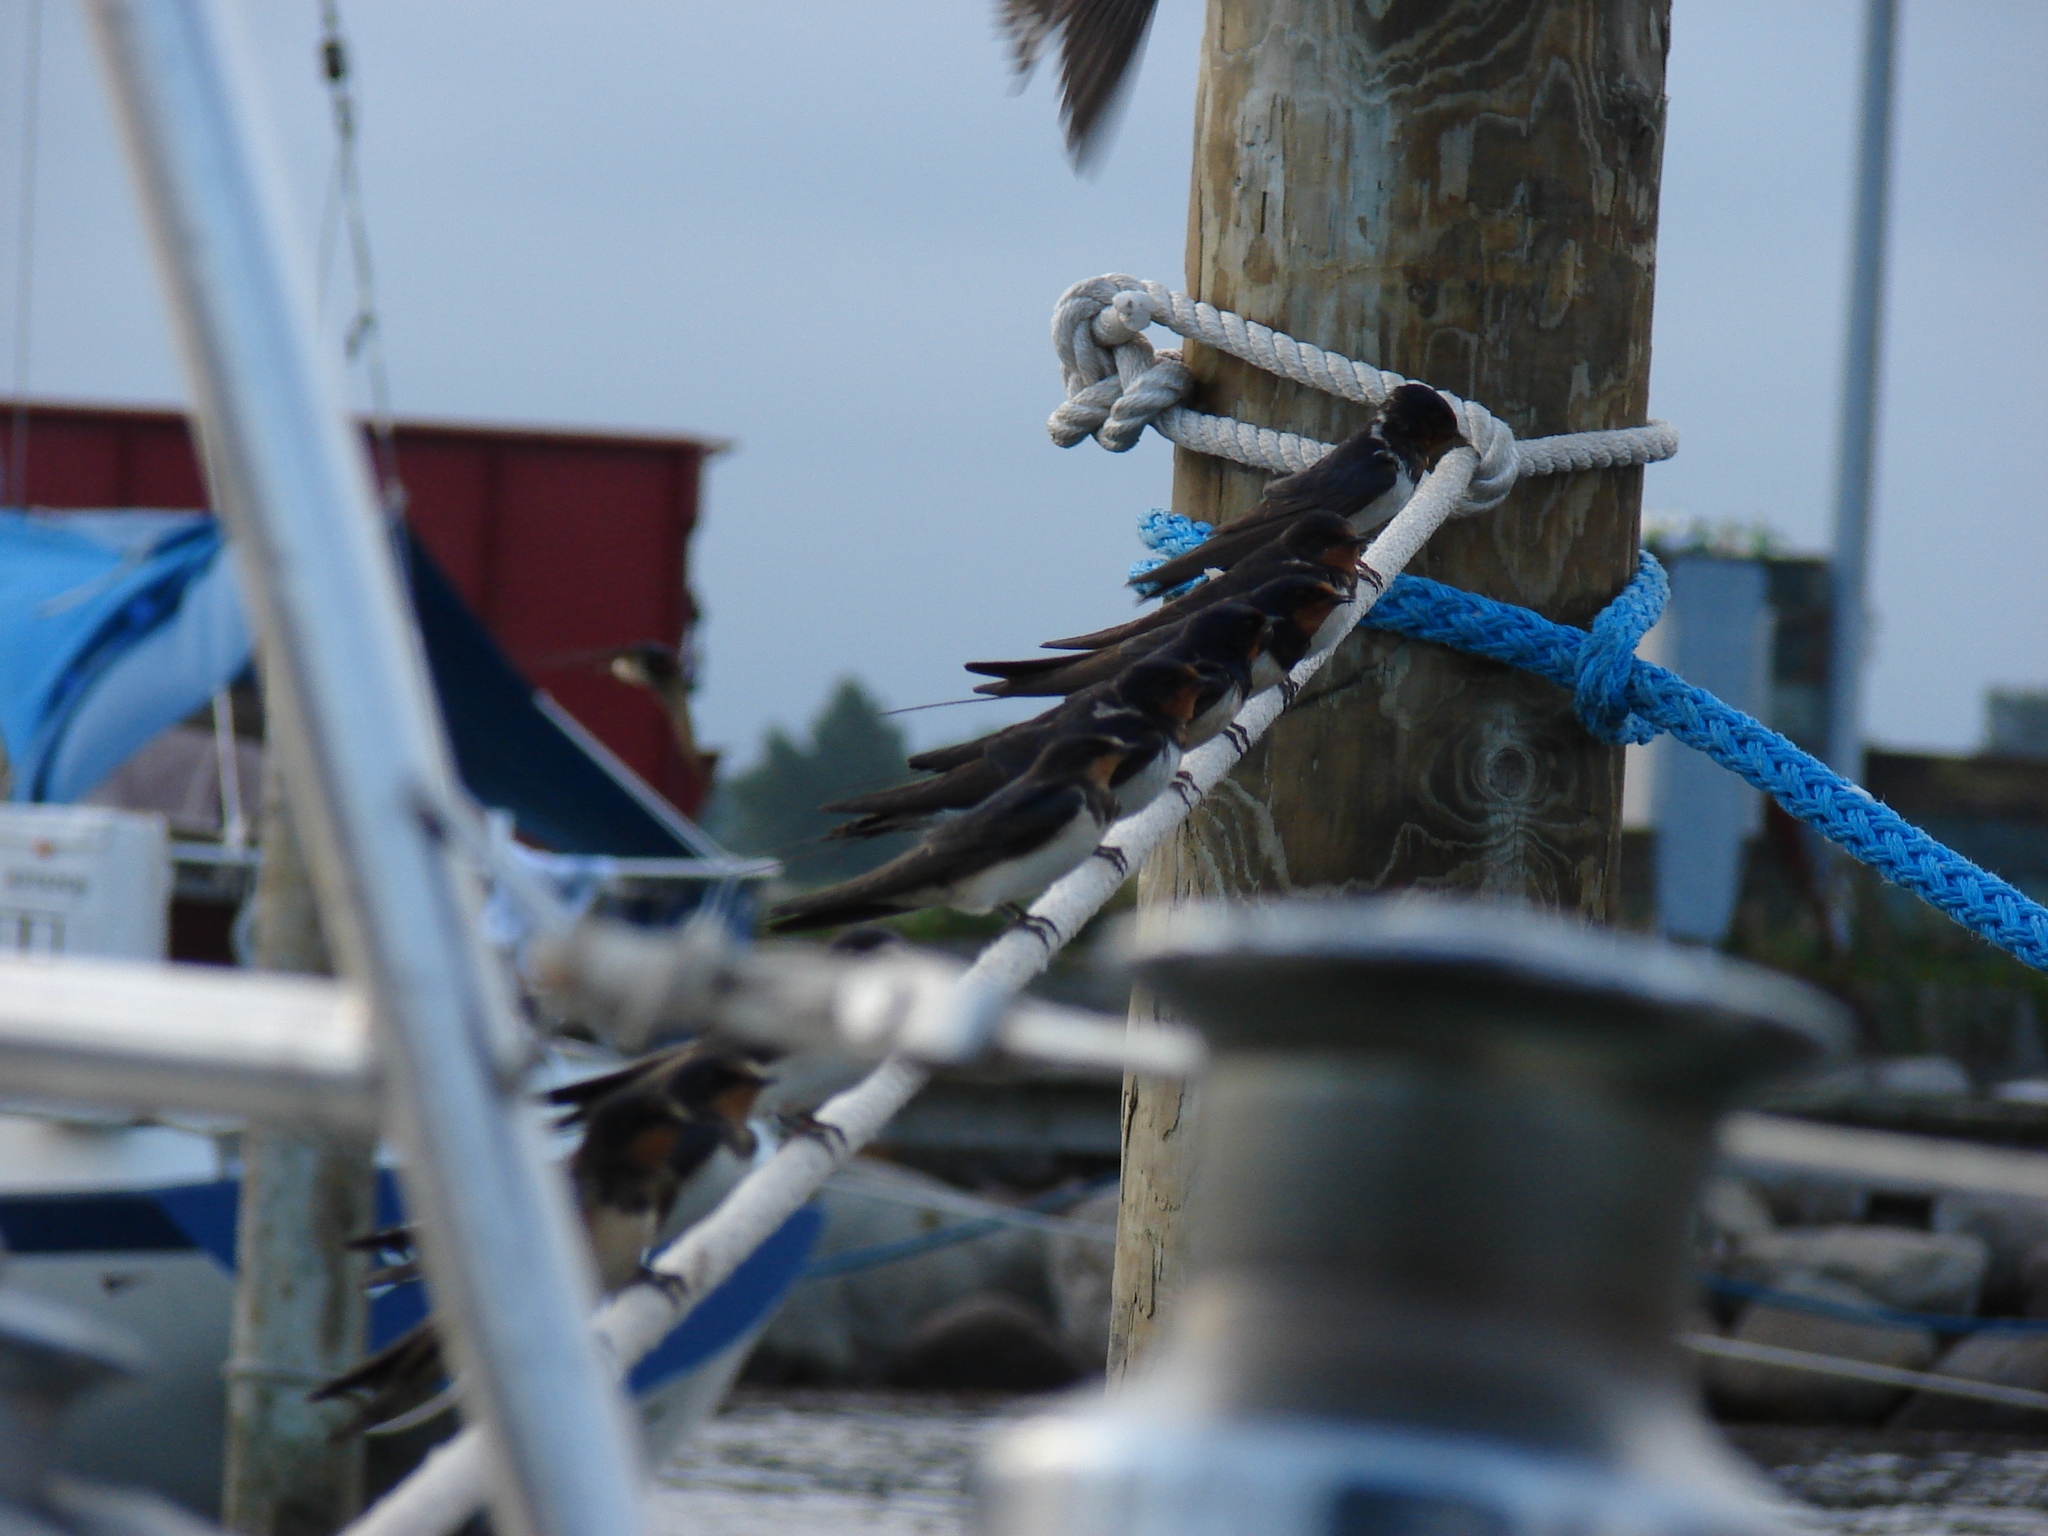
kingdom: Animalia
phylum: Chordata
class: Aves
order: Passeriformes
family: Hirundinidae
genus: Hirundo
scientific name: Hirundo rustica
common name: Barn swallow
